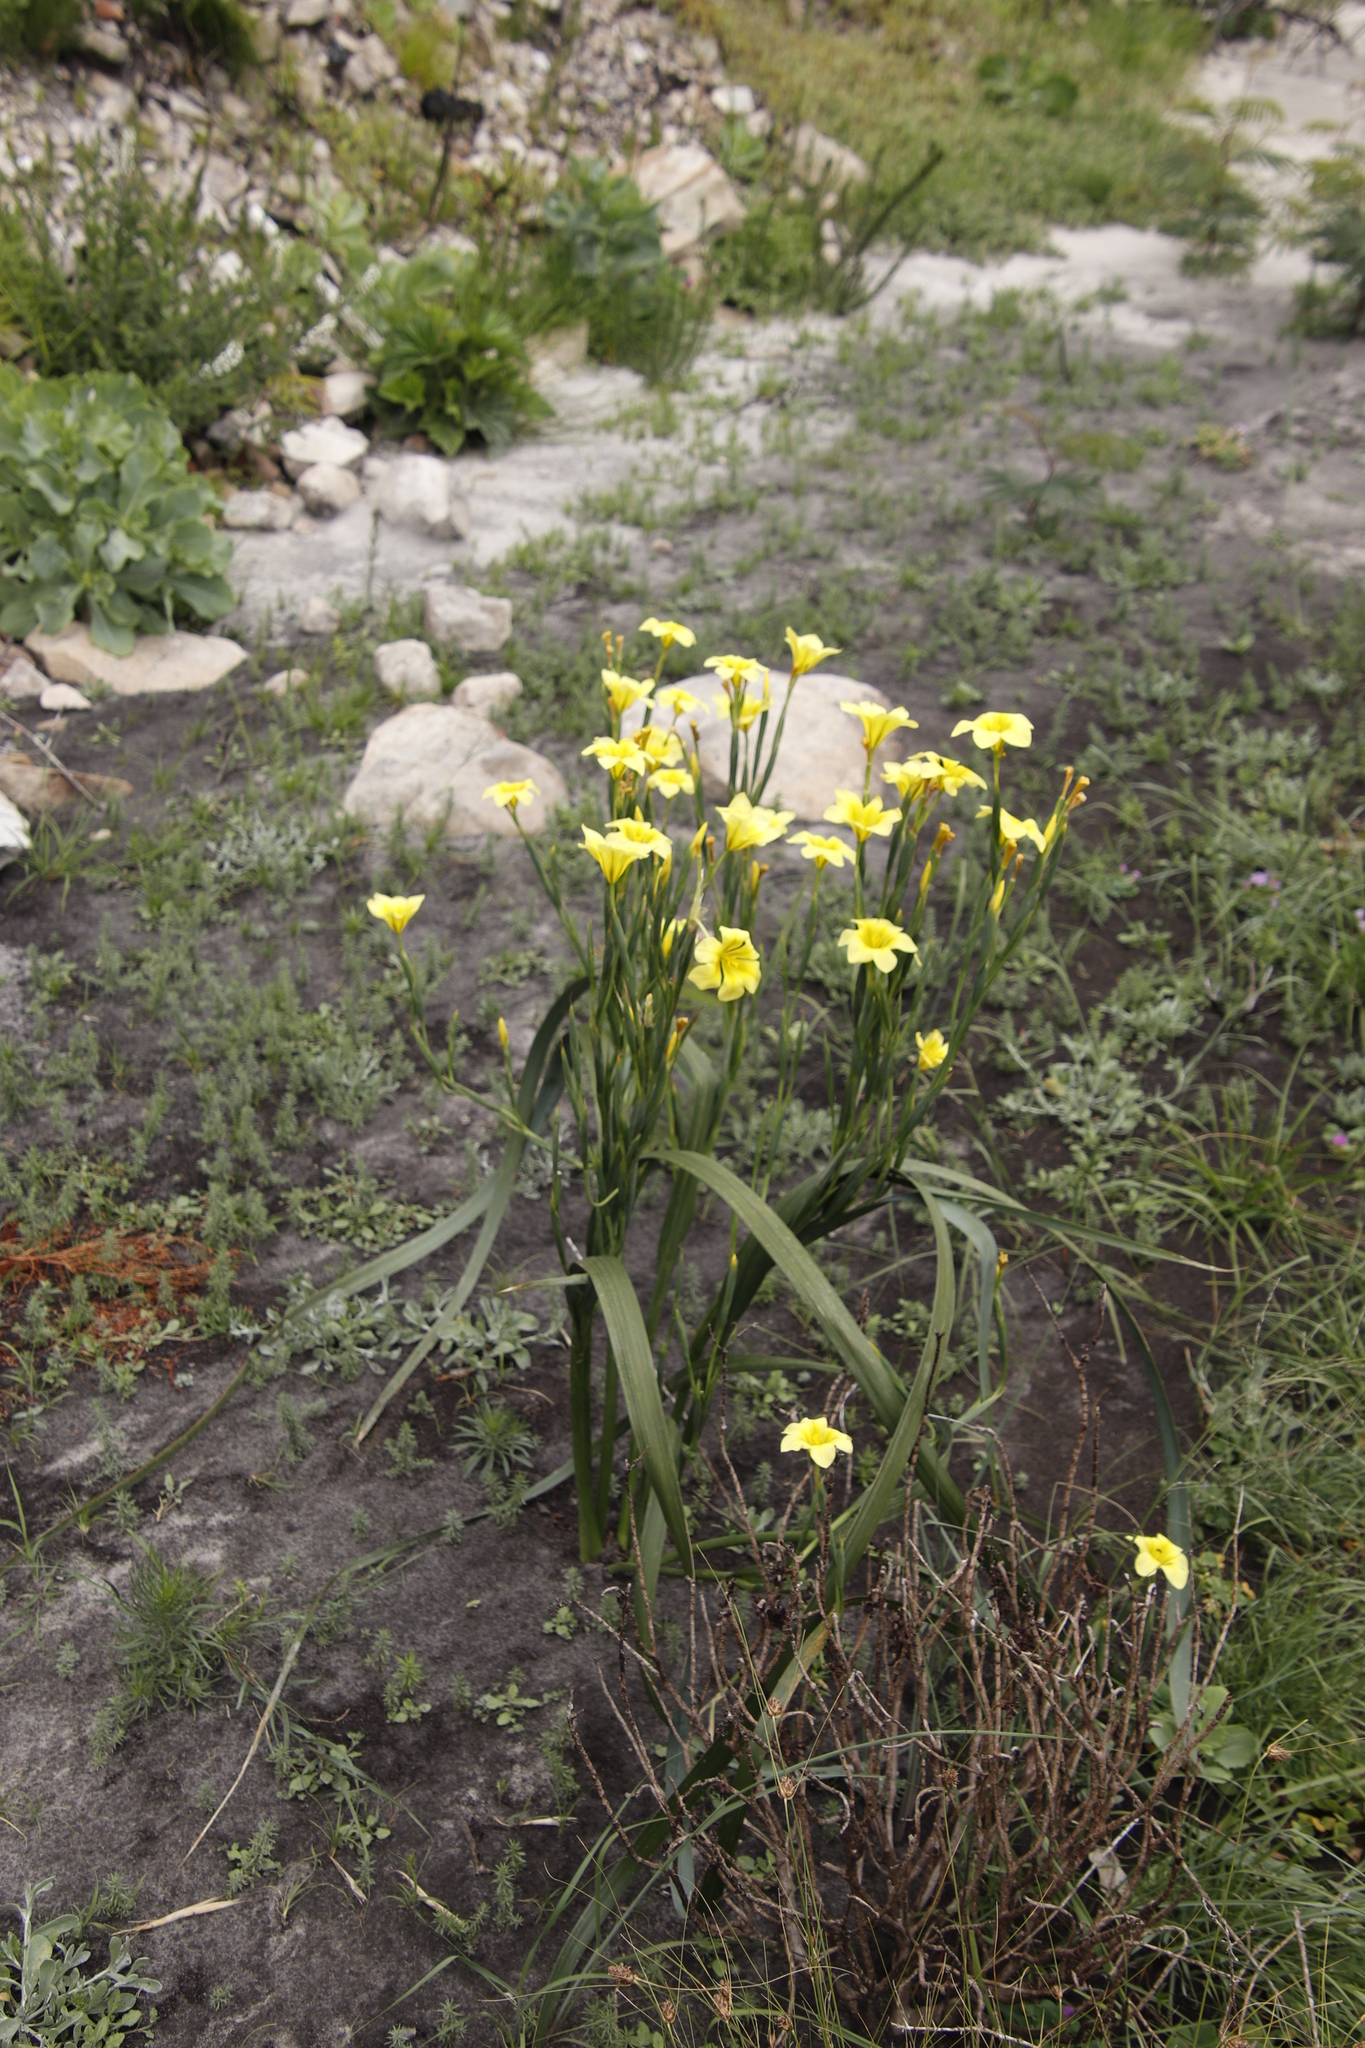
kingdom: Plantae
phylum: Tracheophyta
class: Liliopsida
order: Asparagales
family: Iridaceae
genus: Moraea
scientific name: Moraea ochroleuca
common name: Red tulp
